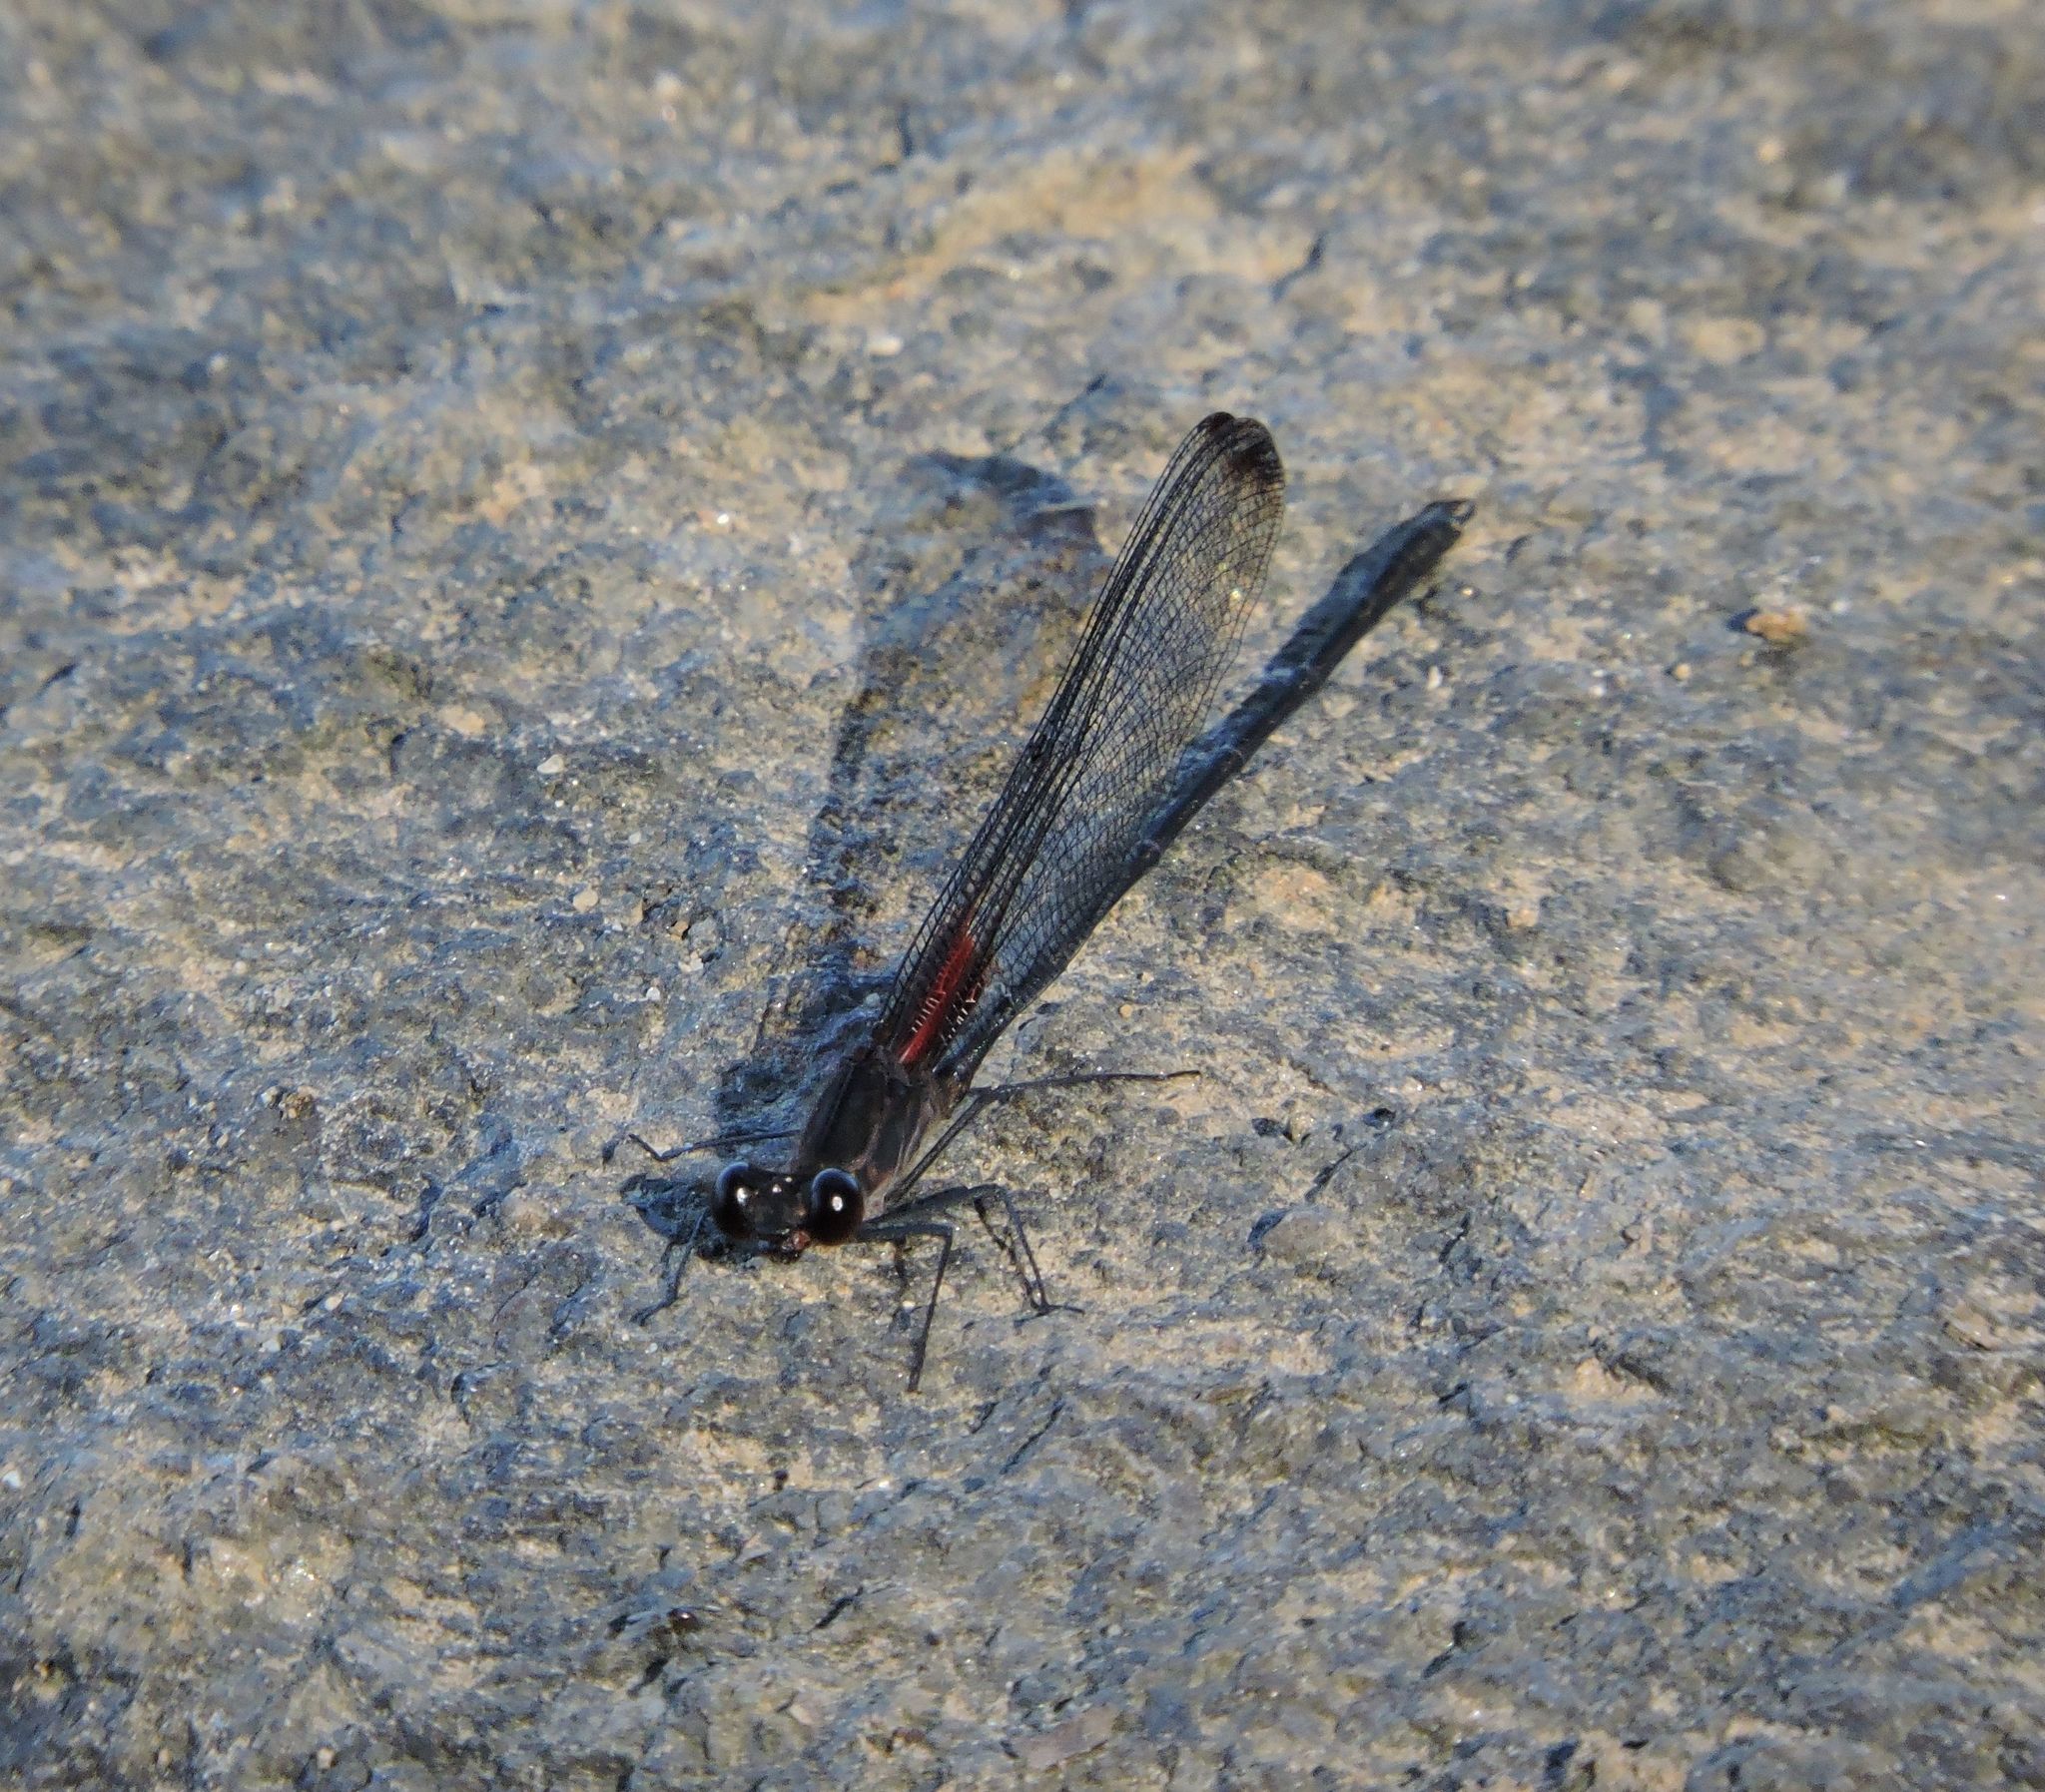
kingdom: Animalia
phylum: Arthropoda
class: Insecta
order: Odonata
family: Calopterygidae
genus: Hetaerina
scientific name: Hetaerina titia
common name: Smoky rubyspot
